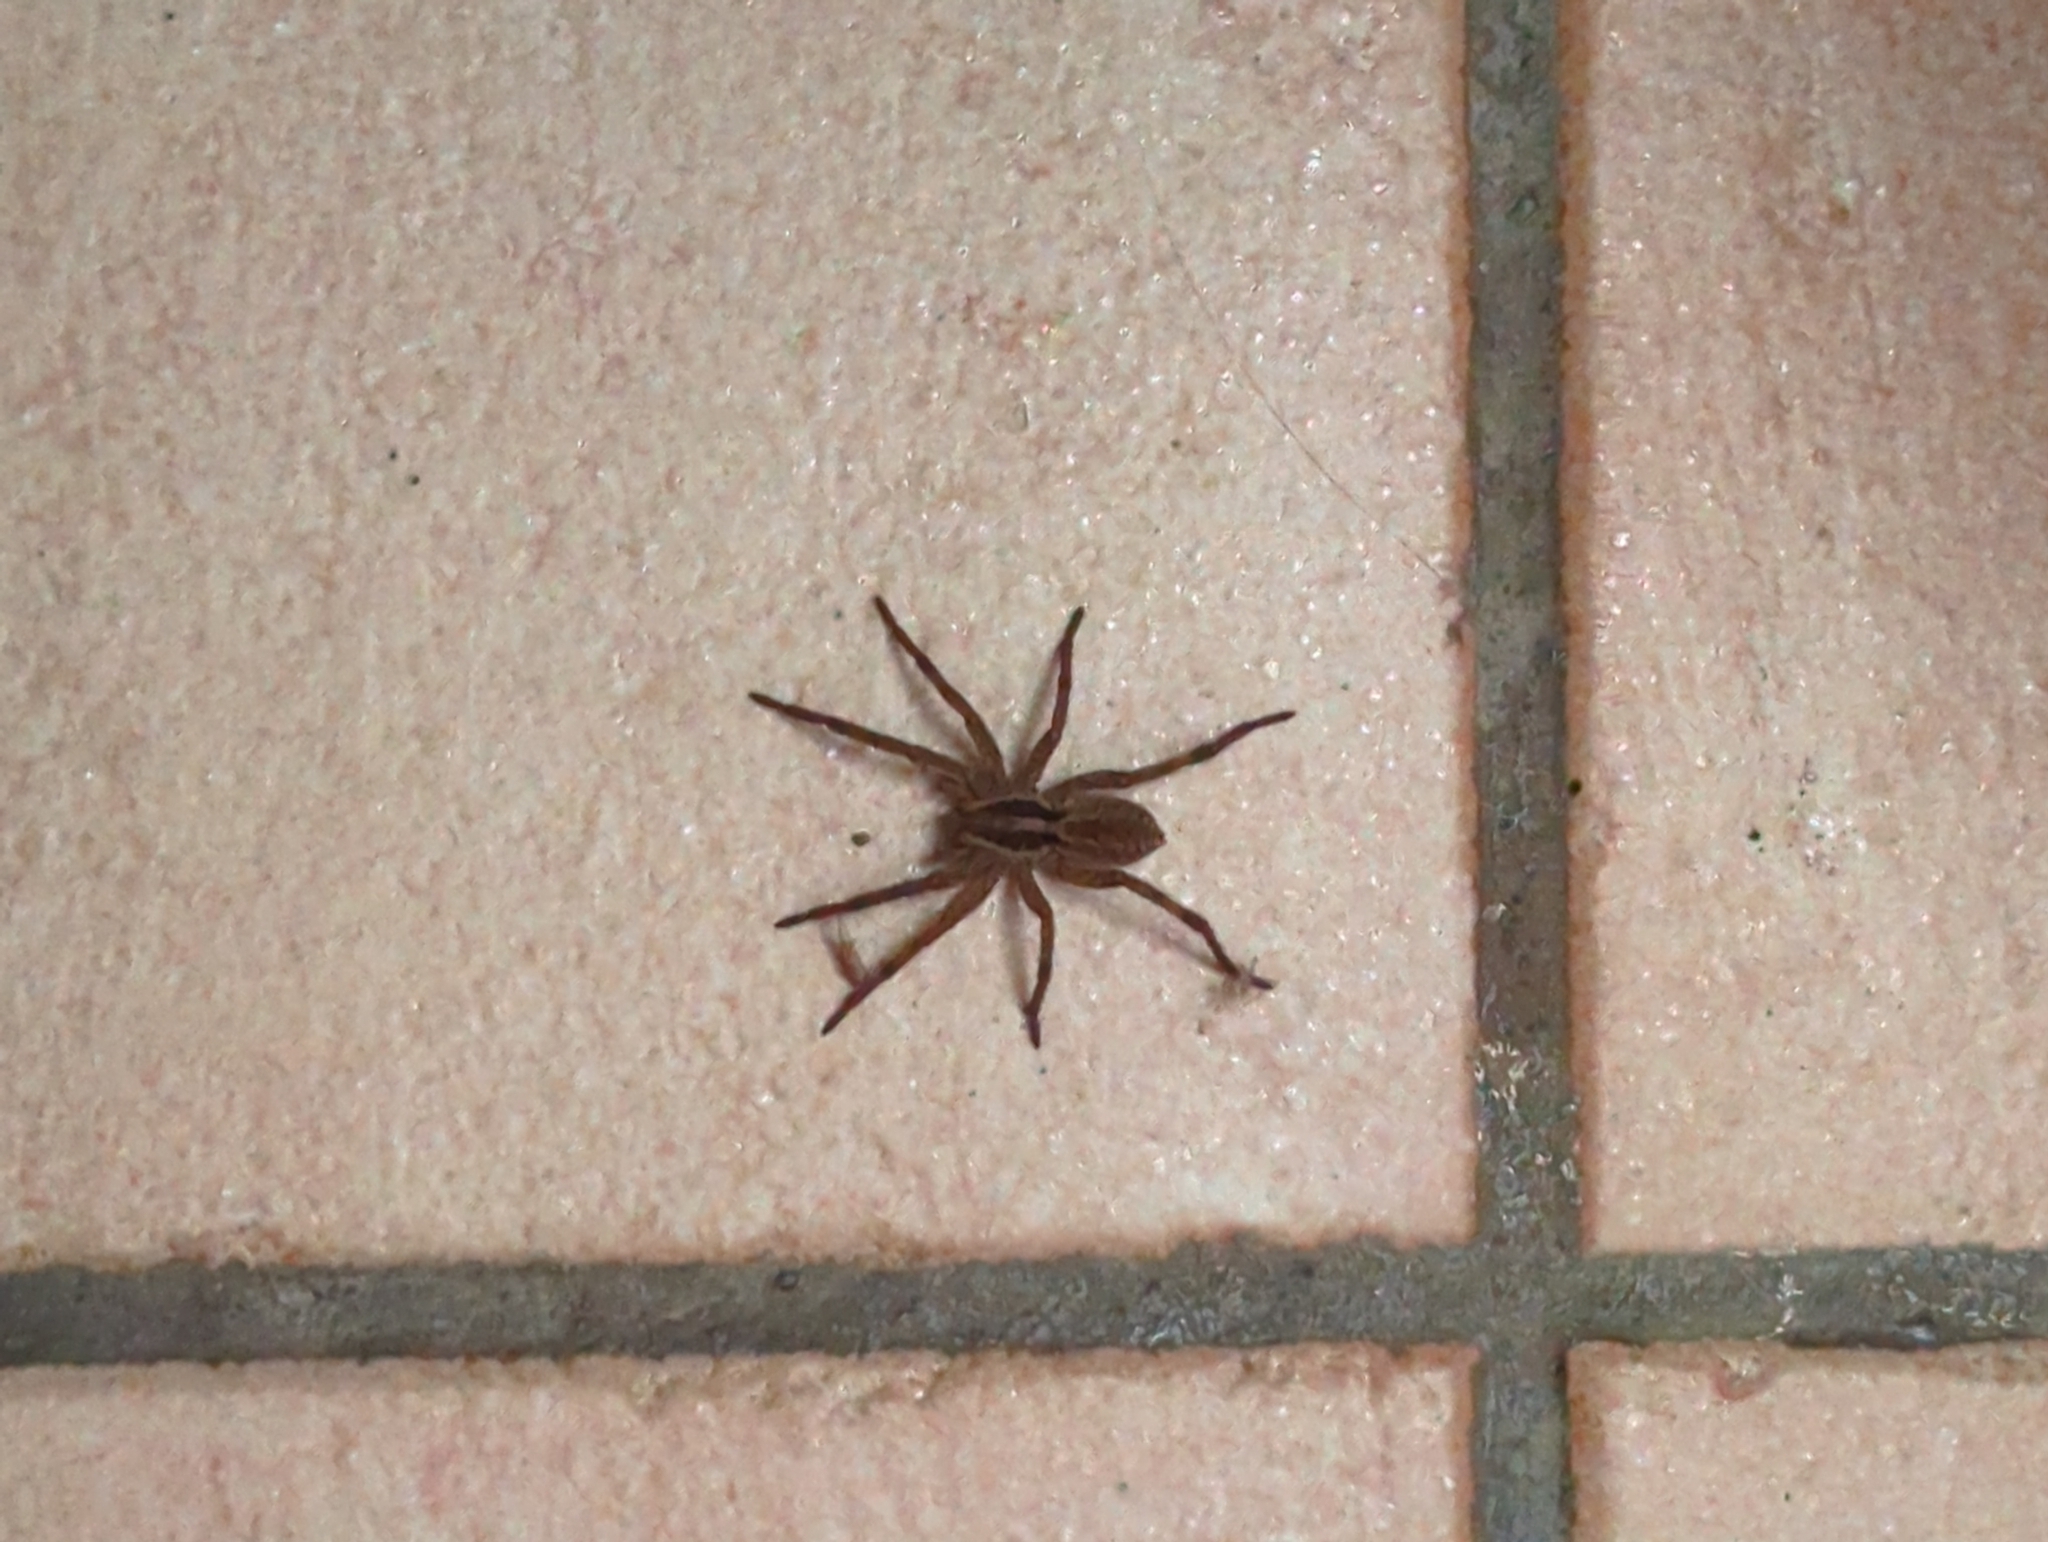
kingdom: Animalia
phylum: Arthropoda
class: Arachnida
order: Araneae
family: Lycosidae
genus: Hogna
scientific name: Hogna radiata
